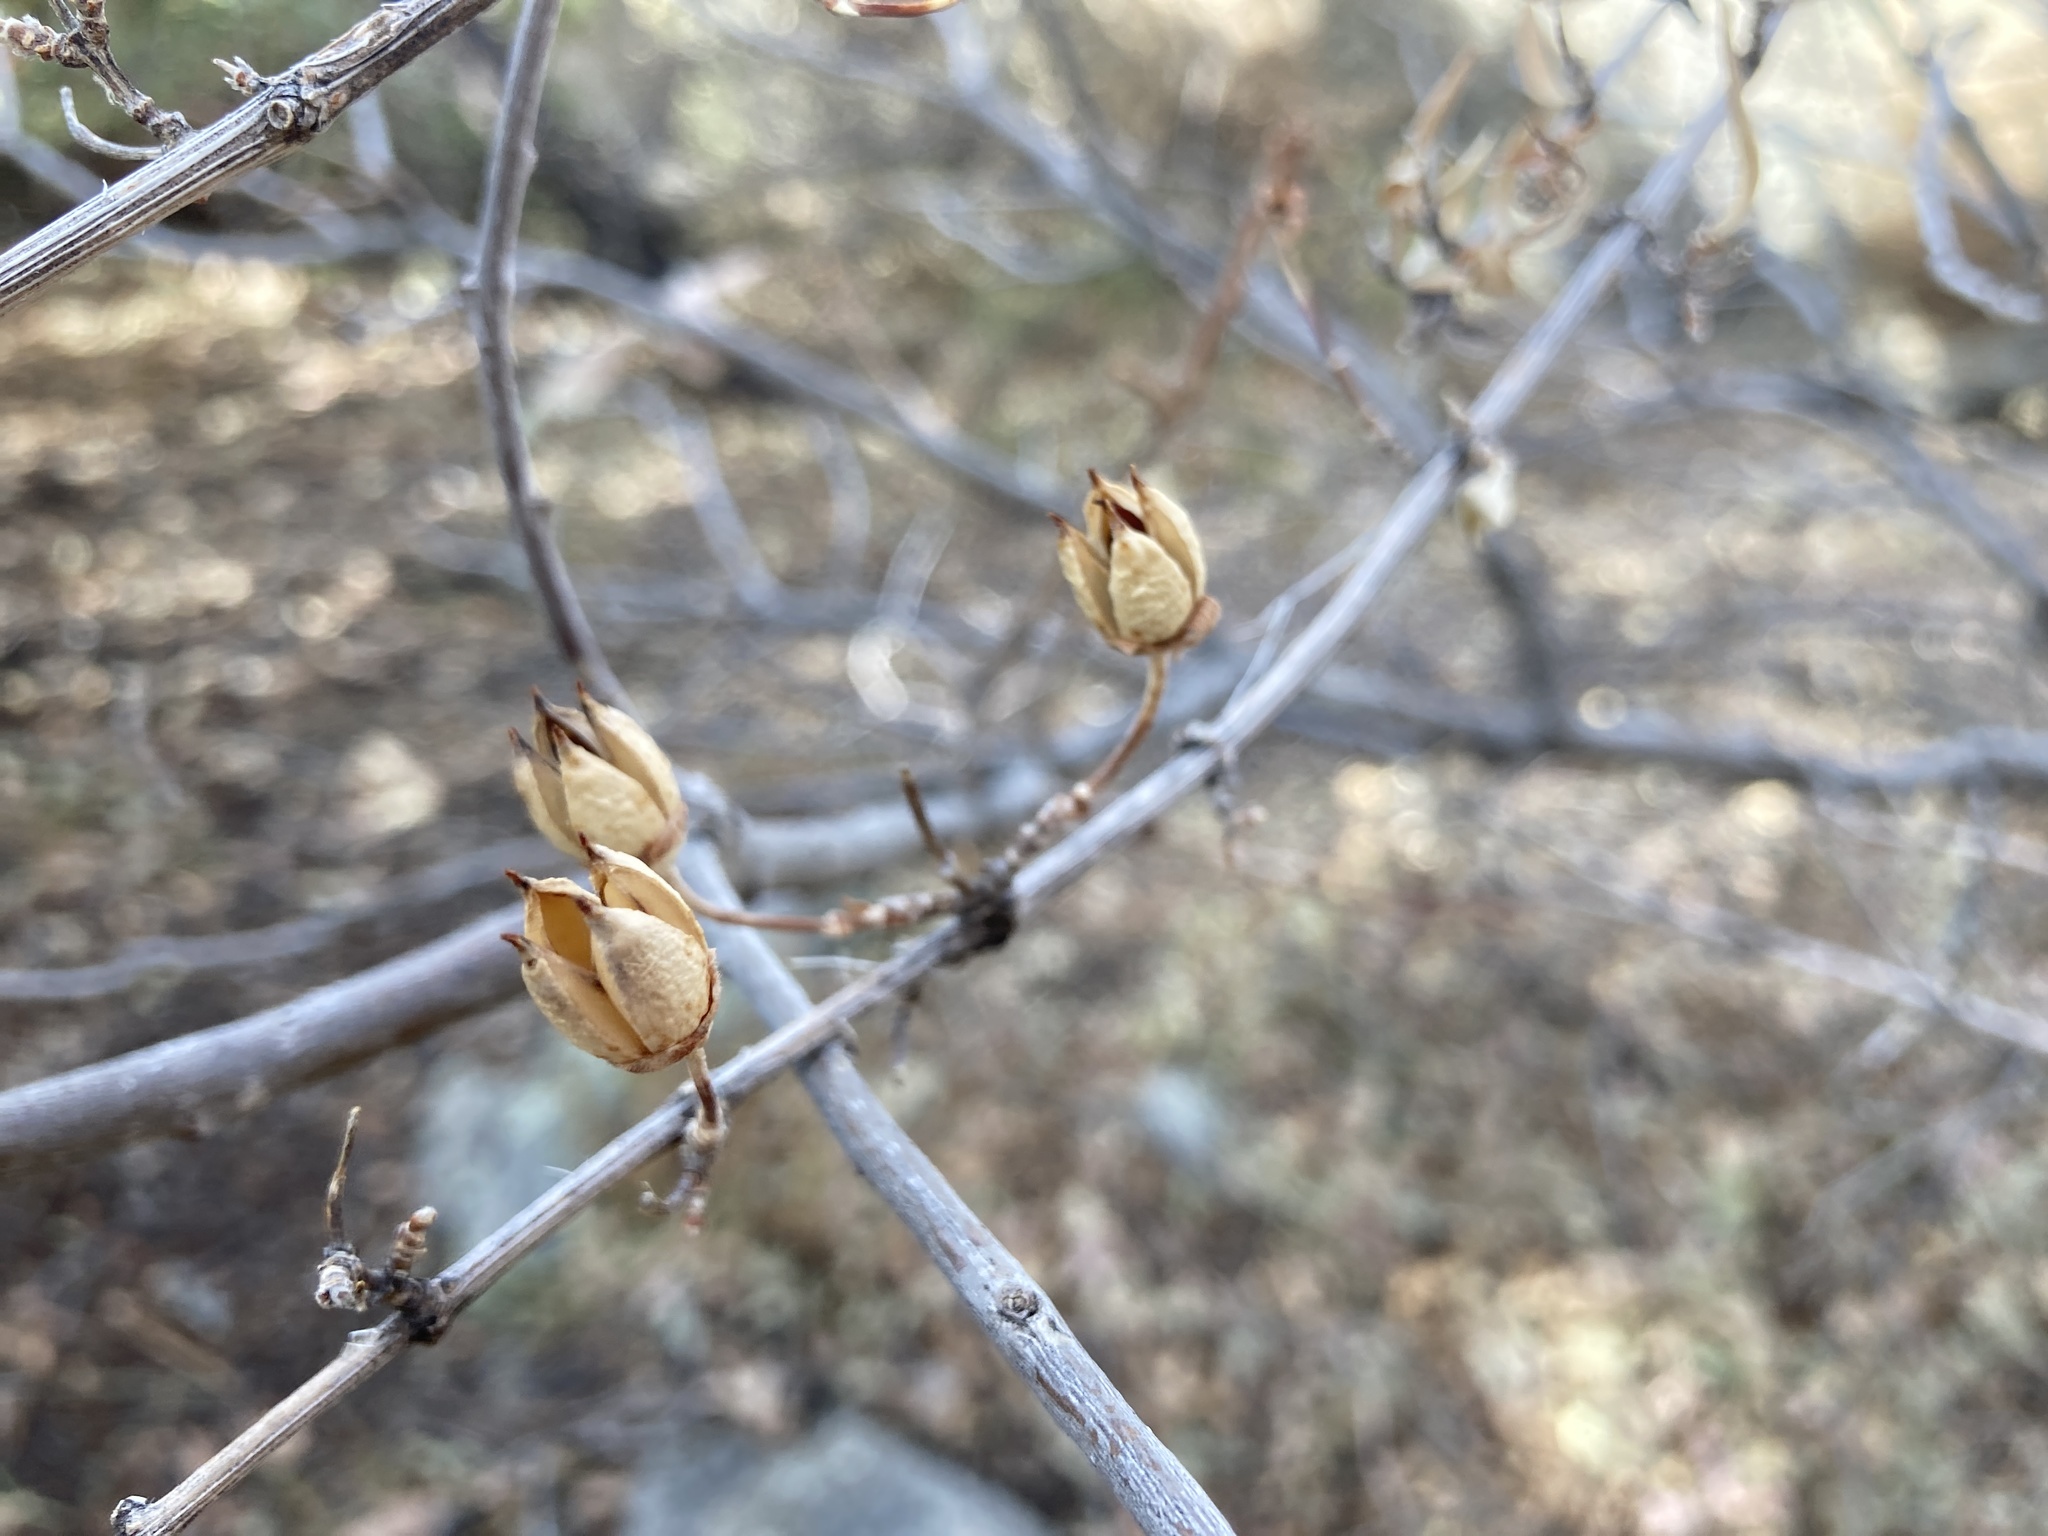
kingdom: Plantae
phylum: Tracheophyta
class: Magnoliopsida
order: Cornales
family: Hydrangeaceae
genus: Fendlera
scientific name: Fendlera rupicola
